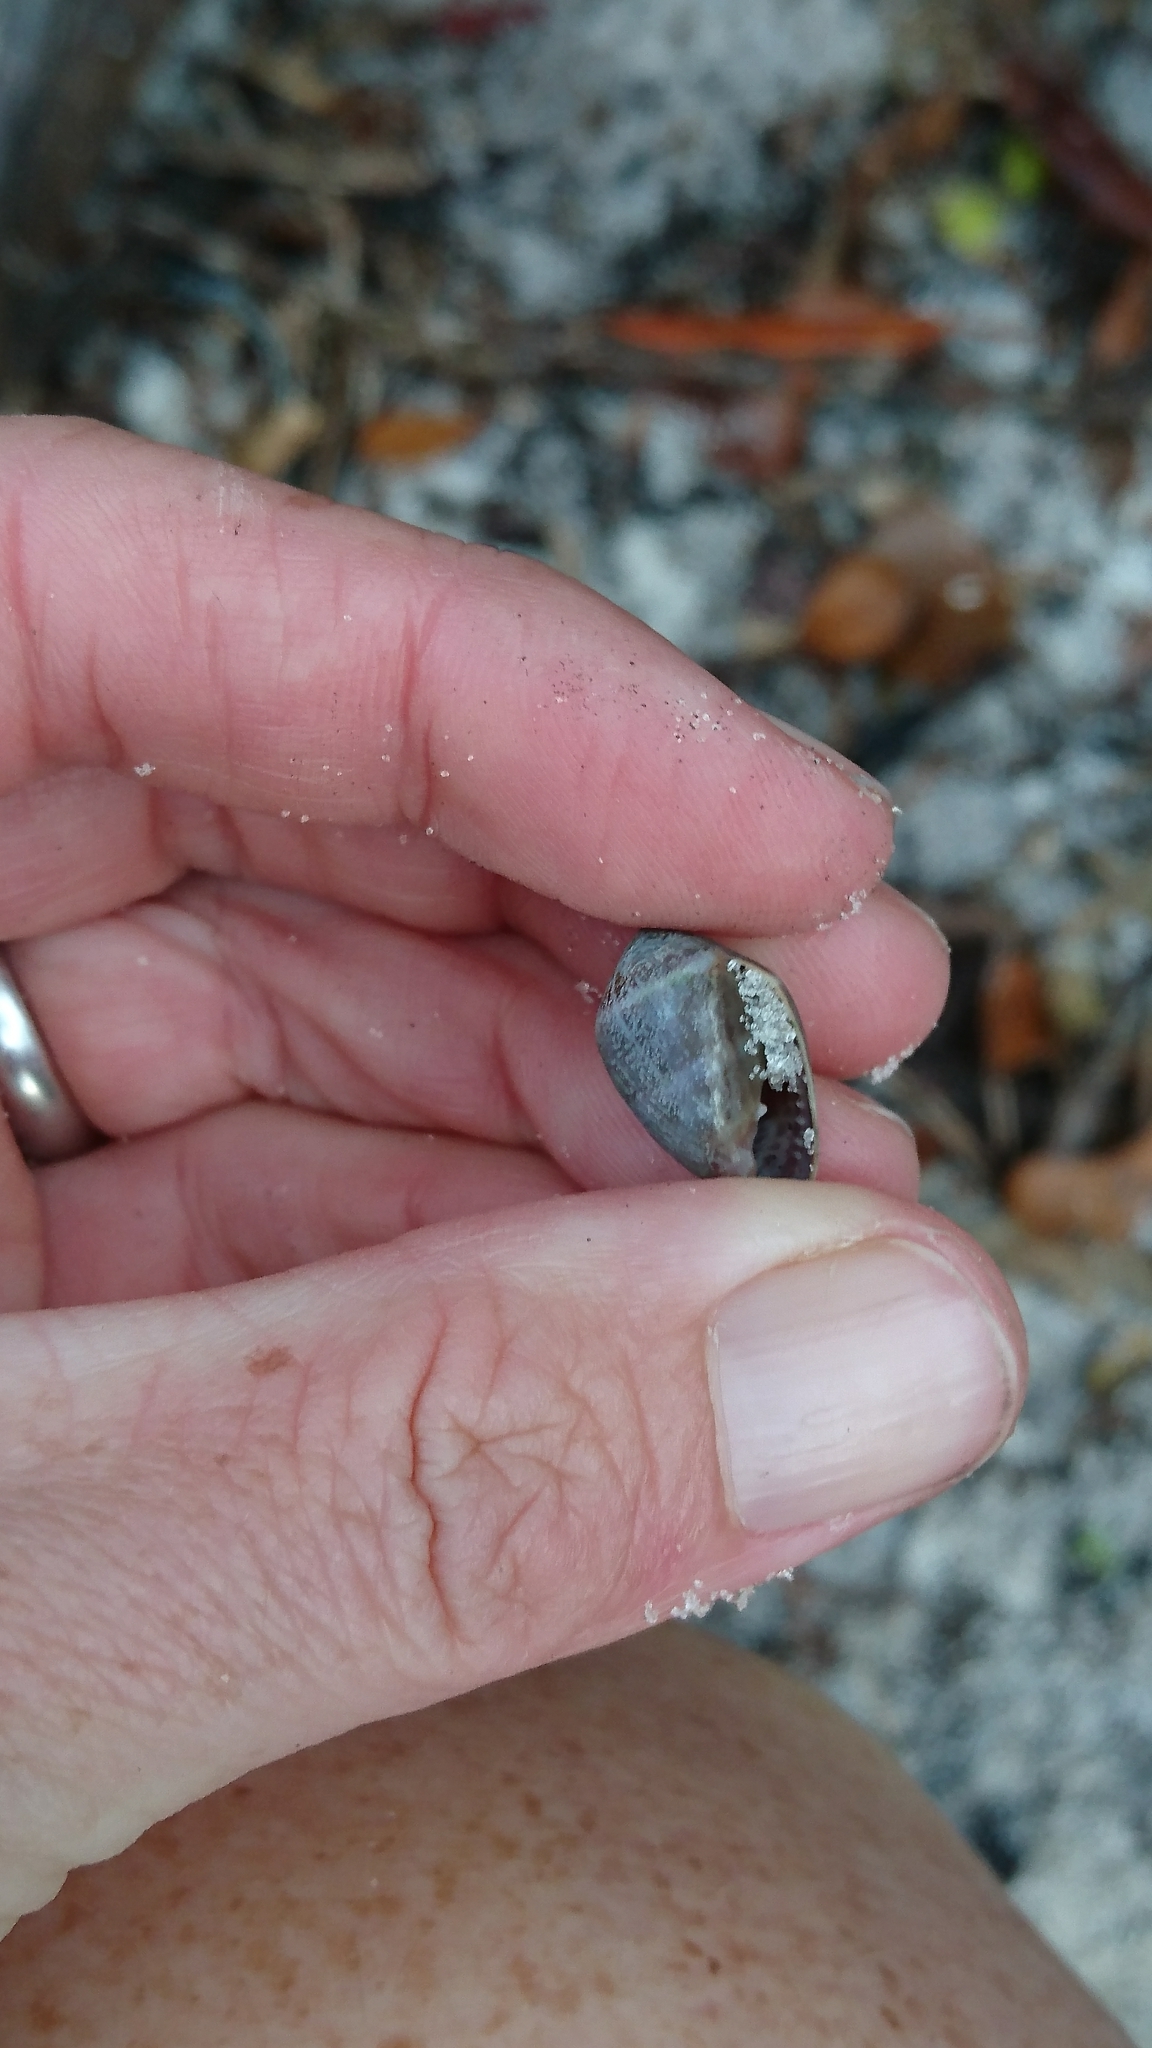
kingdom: Animalia
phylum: Mollusca
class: Gastropoda
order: Ellobiida
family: Ellobiidae
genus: Melampus
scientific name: Melampus coffea
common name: Coffee bean snail
